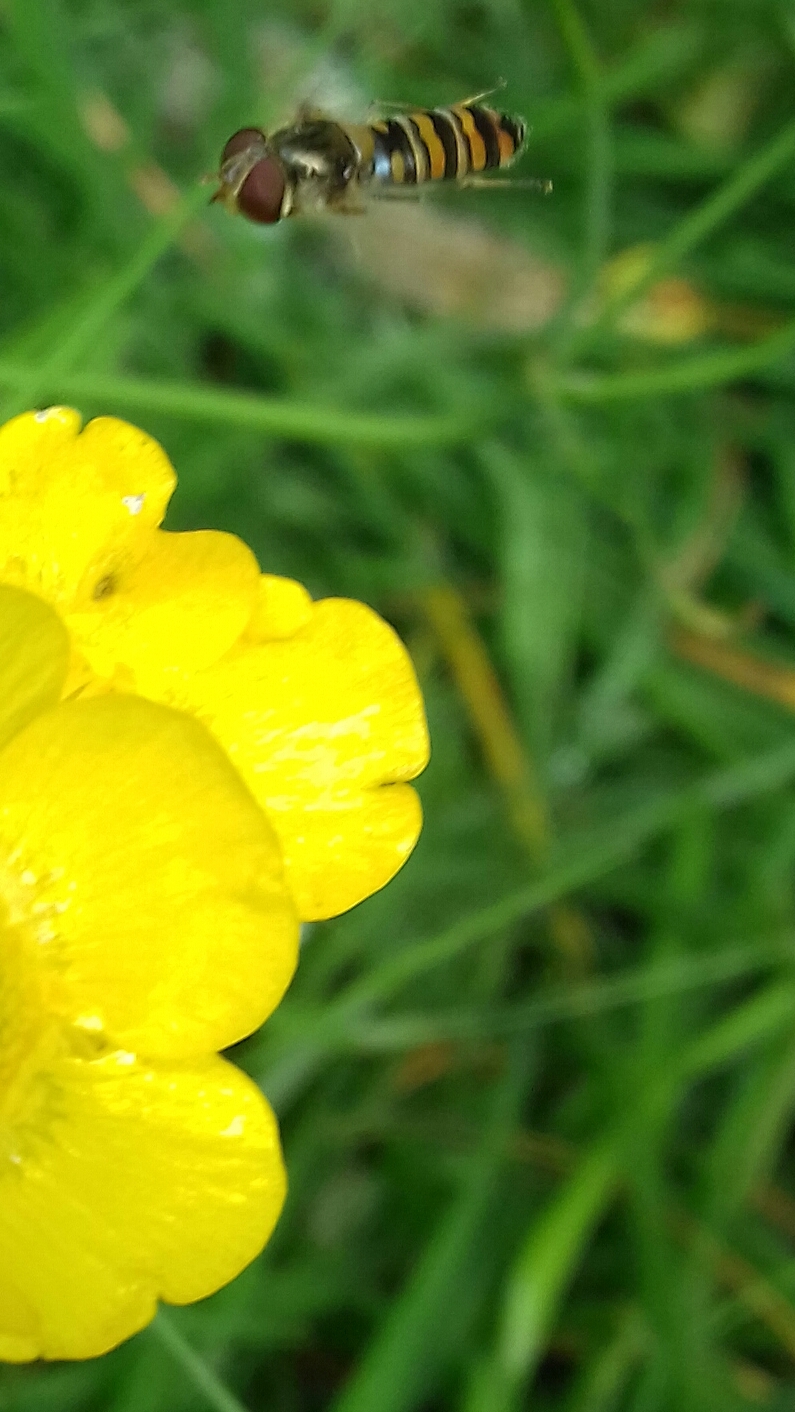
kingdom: Animalia
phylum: Arthropoda
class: Insecta
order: Diptera
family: Syrphidae
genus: Episyrphus
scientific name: Episyrphus balteatus
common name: Marmalade hoverfly
